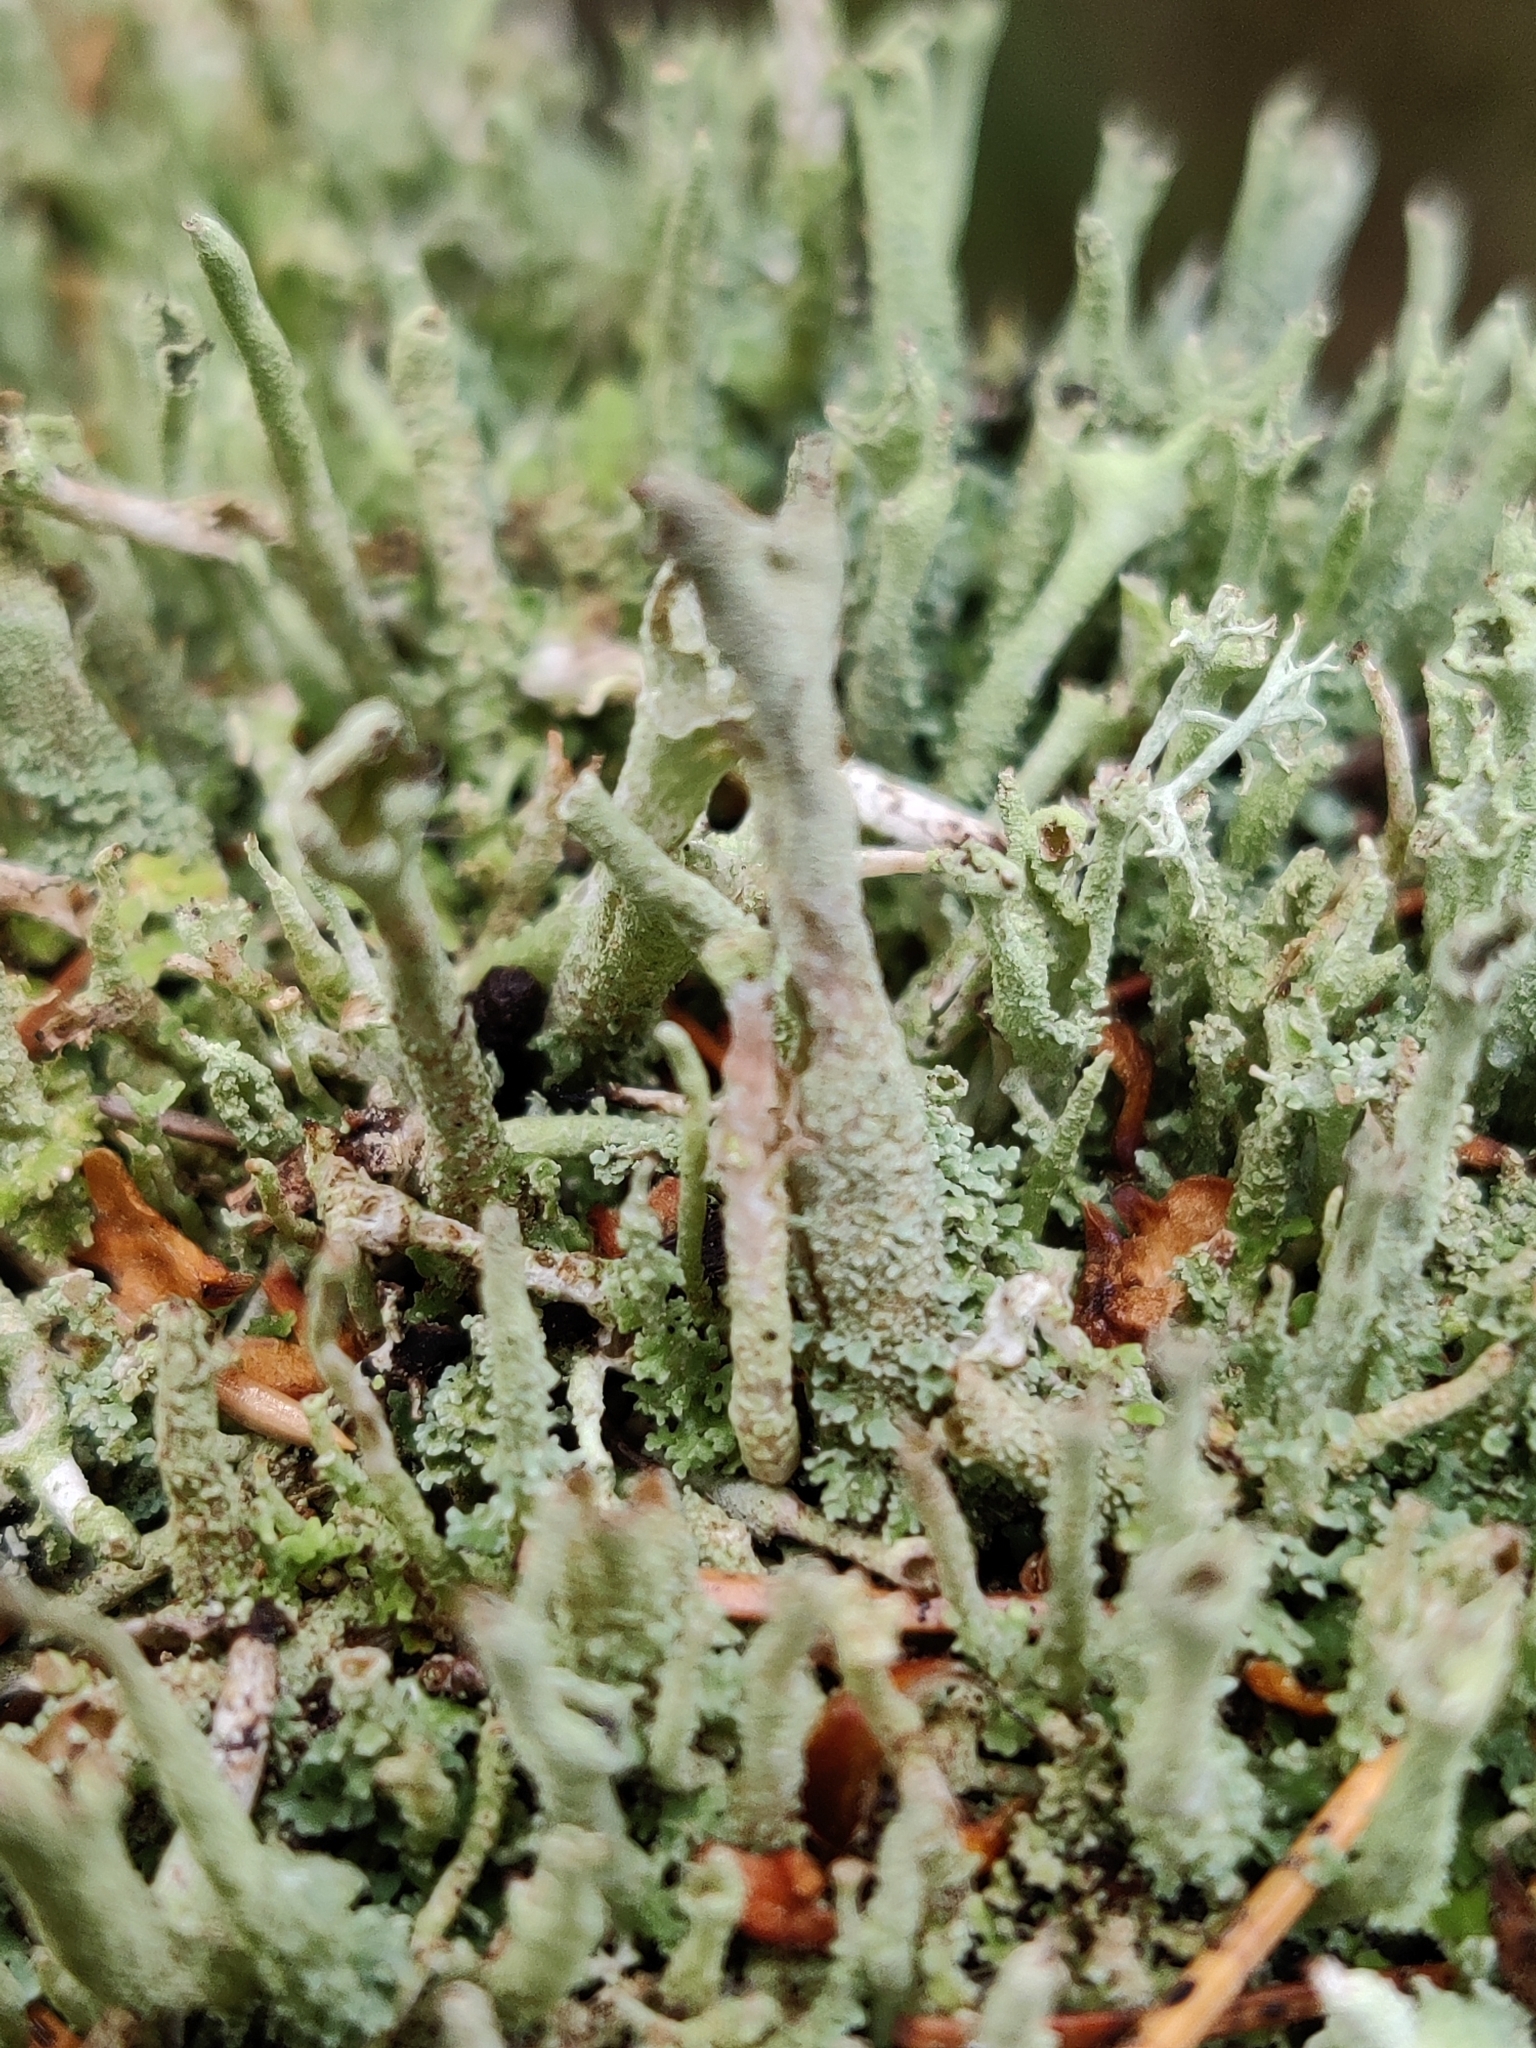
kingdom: Fungi
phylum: Ascomycota
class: Lecanoromycetes
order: Lecanorales
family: Cladoniaceae
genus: Cladonia
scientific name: Cladonia cenotea
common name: Powdered funnel lichen
